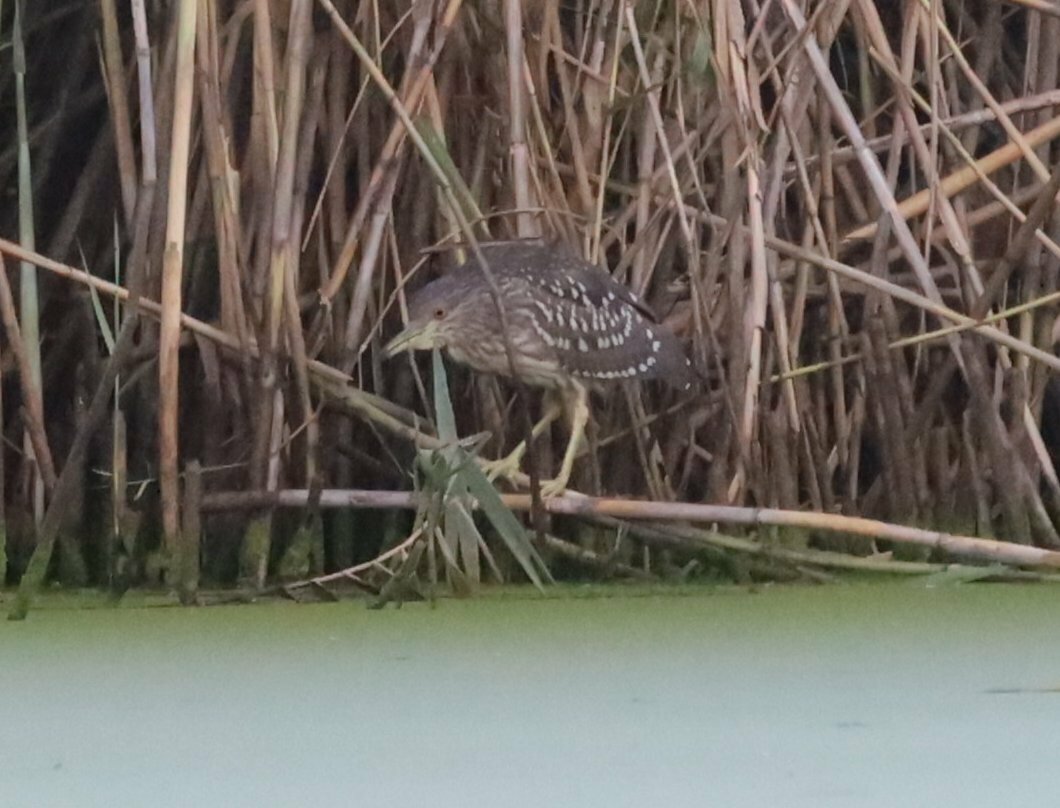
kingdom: Animalia
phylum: Chordata
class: Aves
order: Pelecaniformes
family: Ardeidae
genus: Nycticorax
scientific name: Nycticorax nycticorax
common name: Black-crowned night heron
